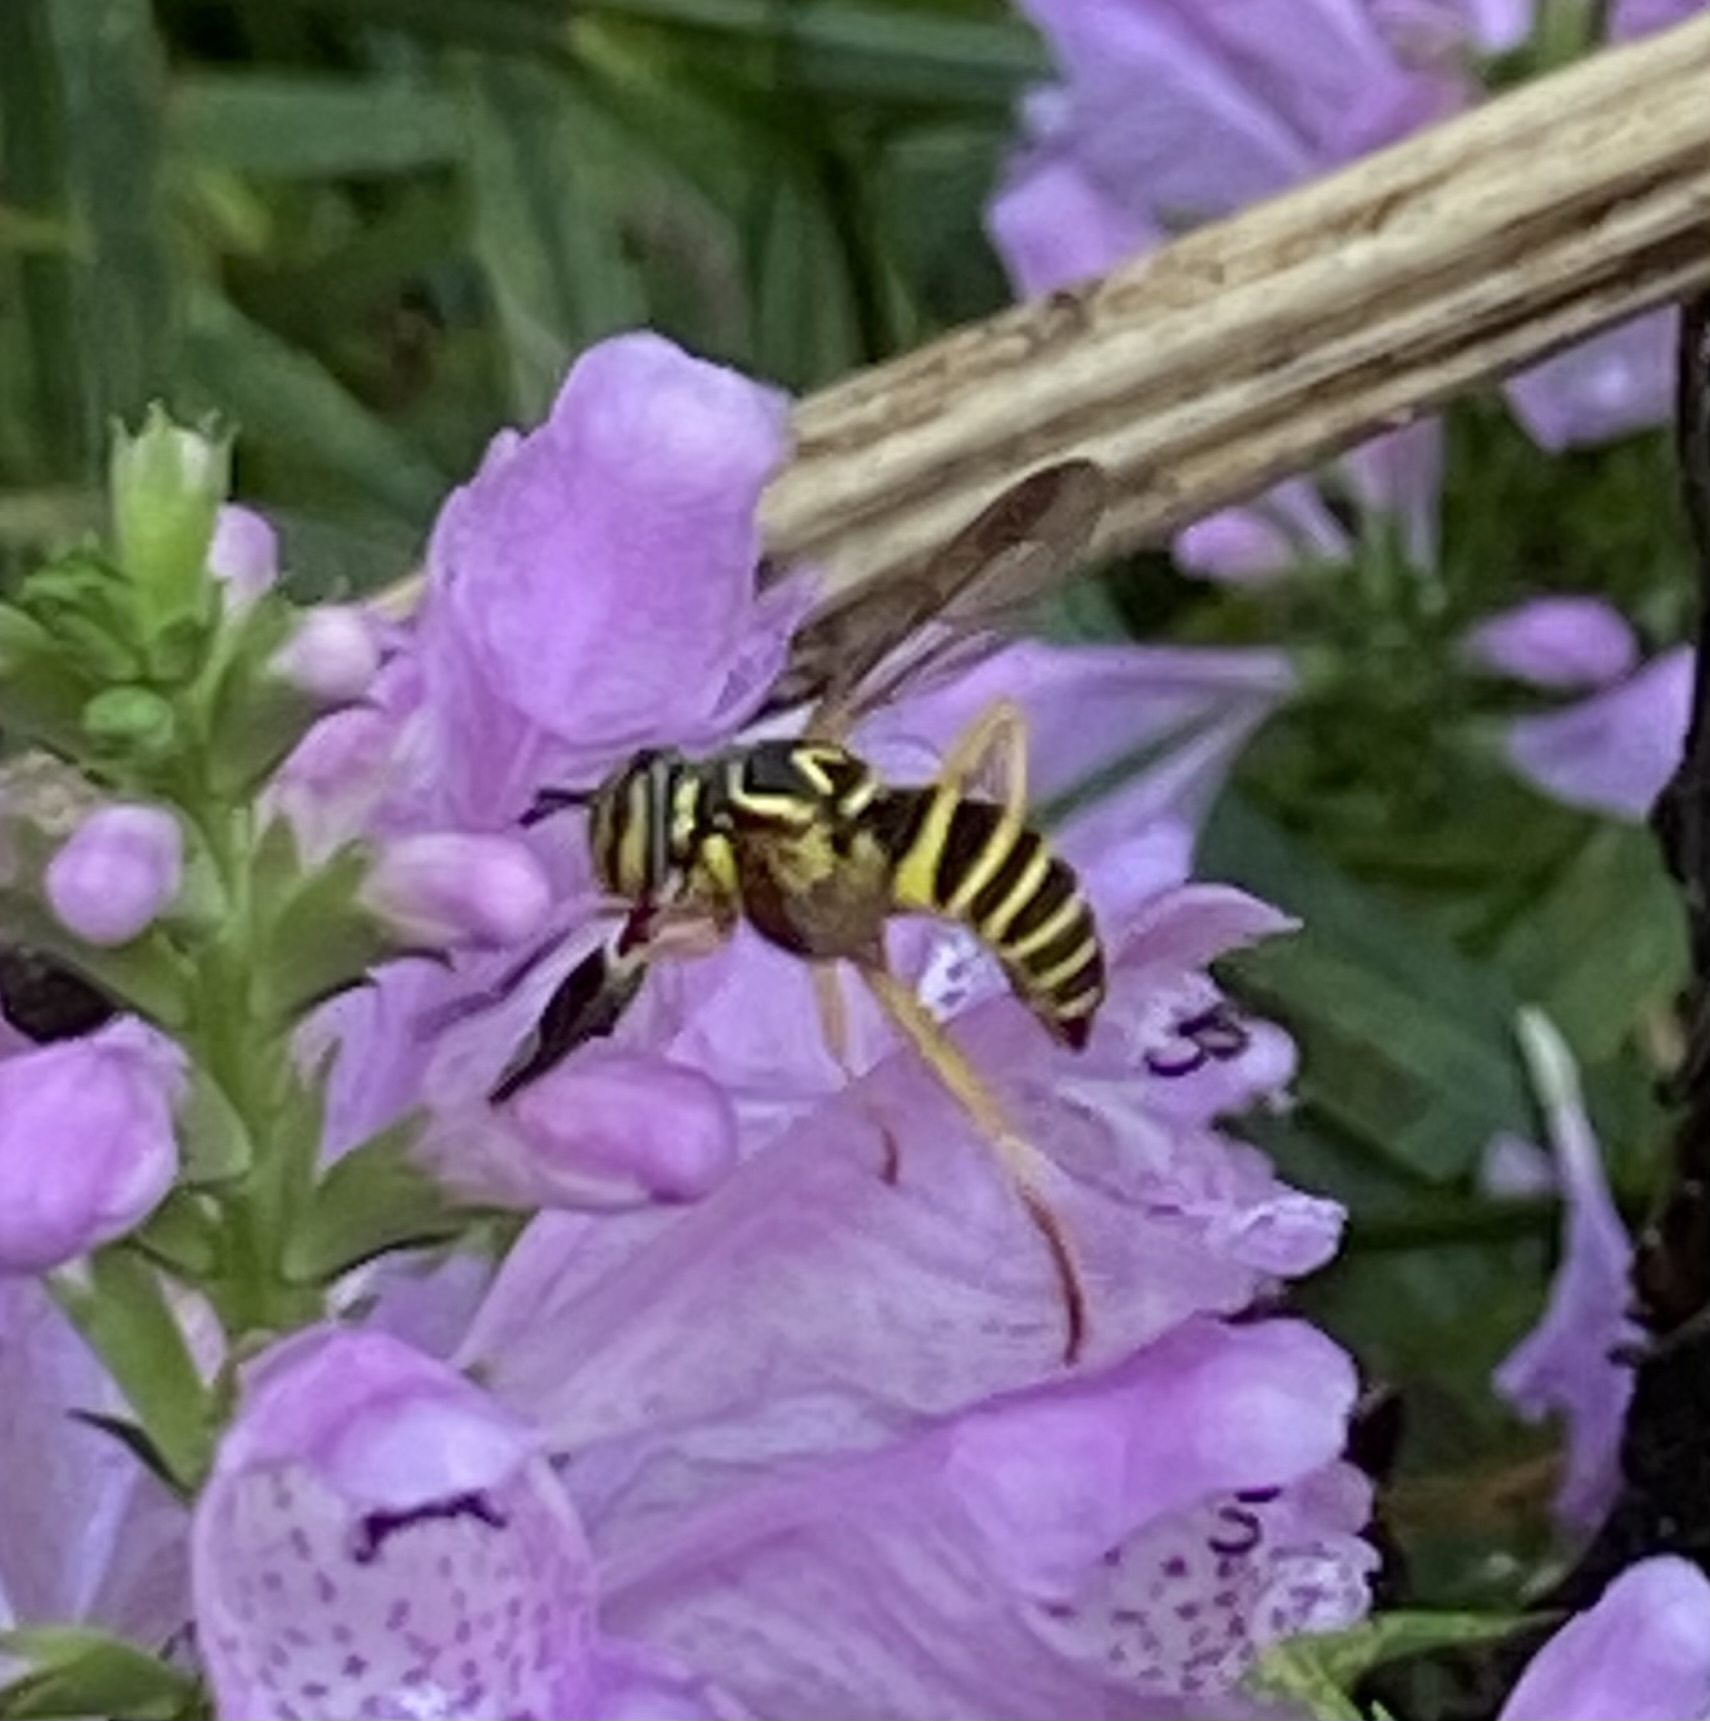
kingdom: Animalia
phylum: Arthropoda
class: Insecta
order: Diptera
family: Syrphidae
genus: Spilomyia
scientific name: Spilomyia longicornis
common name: Eastern hornet fly
